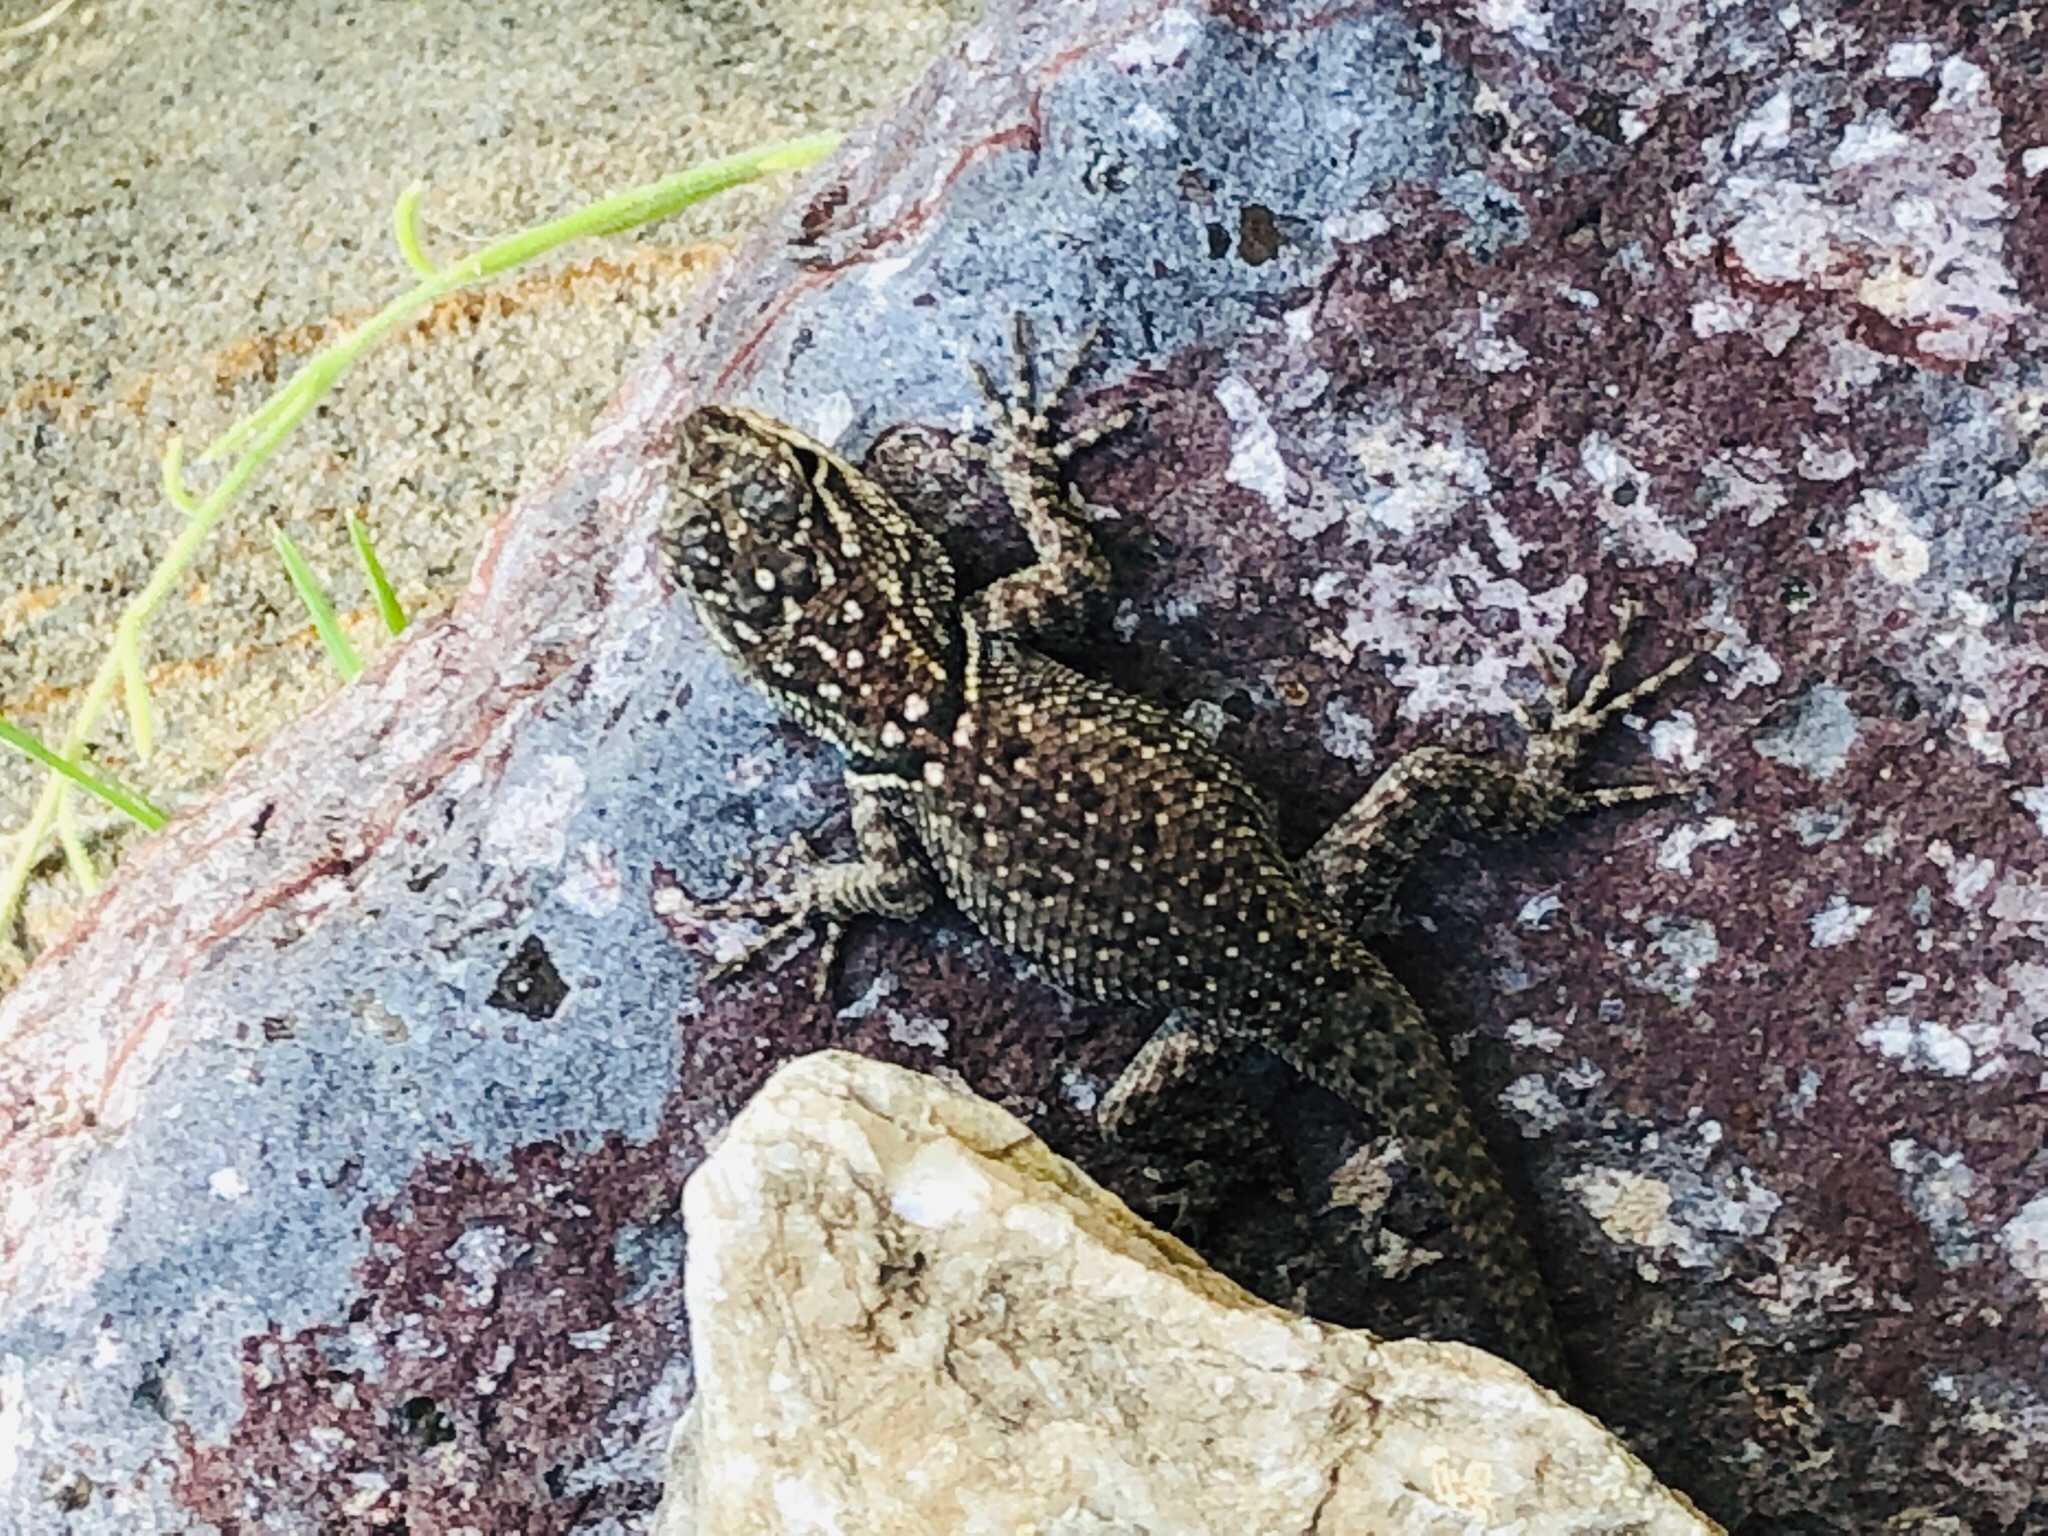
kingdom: Animalia
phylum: Chordata
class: Squamata
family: Phrynosomatidae
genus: Sceloporus
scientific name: Sceloporus jarrovii
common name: Yarrow's spiny lizard
